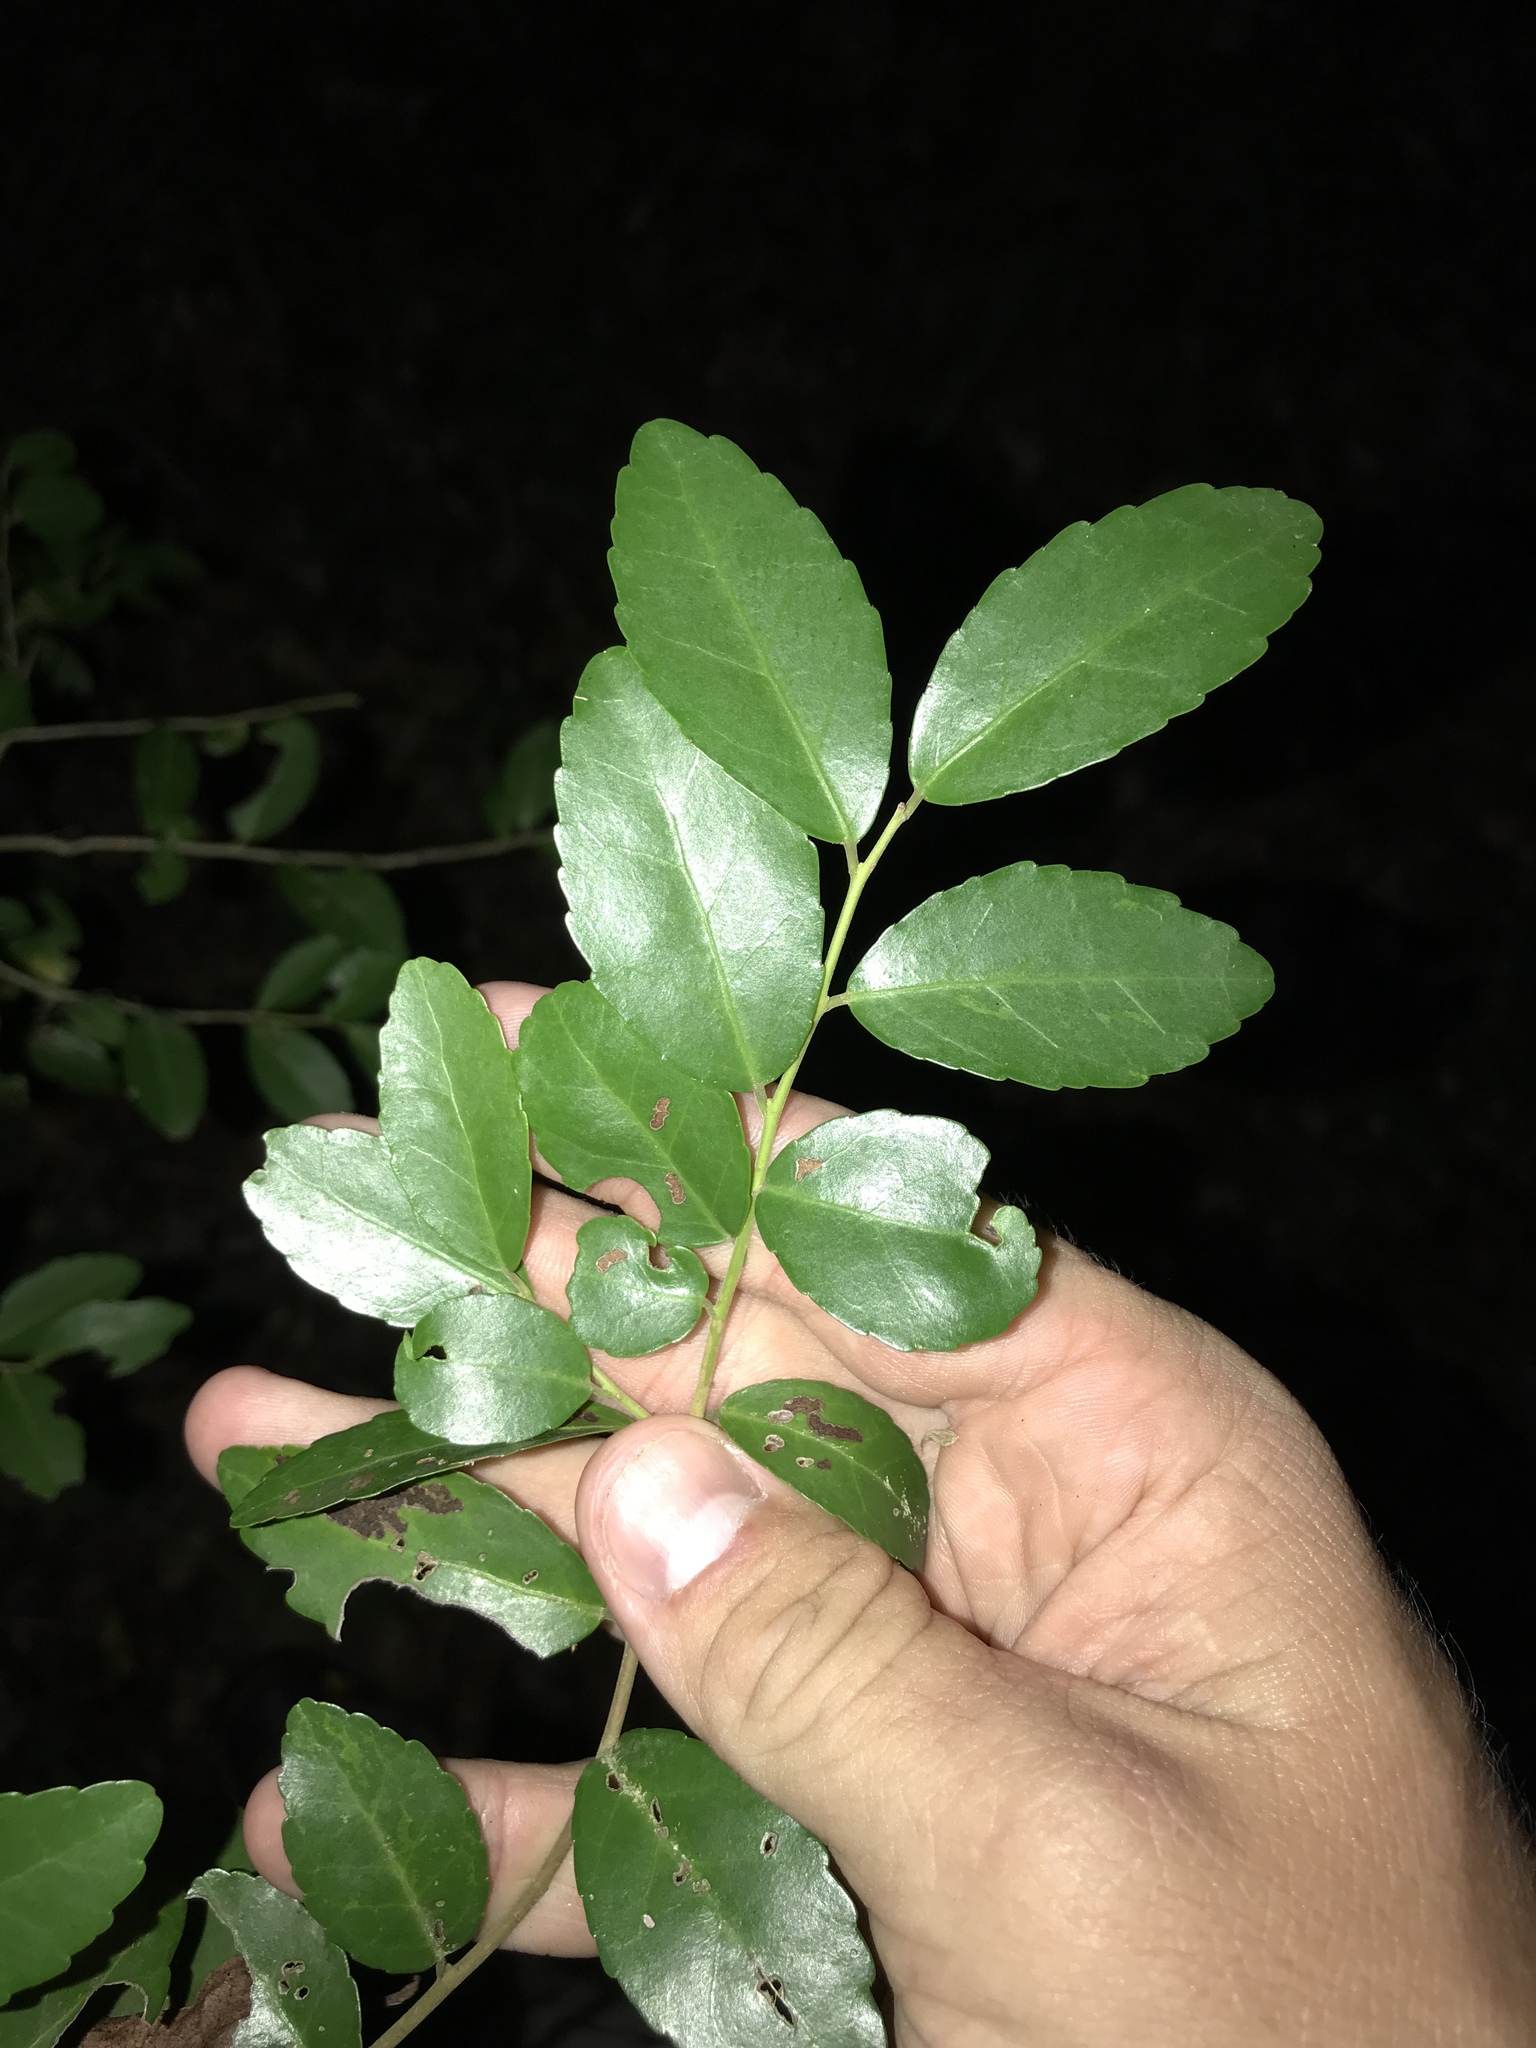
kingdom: Plantae
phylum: Tracheophyta
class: Magnoliopsida
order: Aquifoliales
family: Aquifoliaceae
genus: Ilex
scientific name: Ilex vomitoria
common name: Yaupon holly
